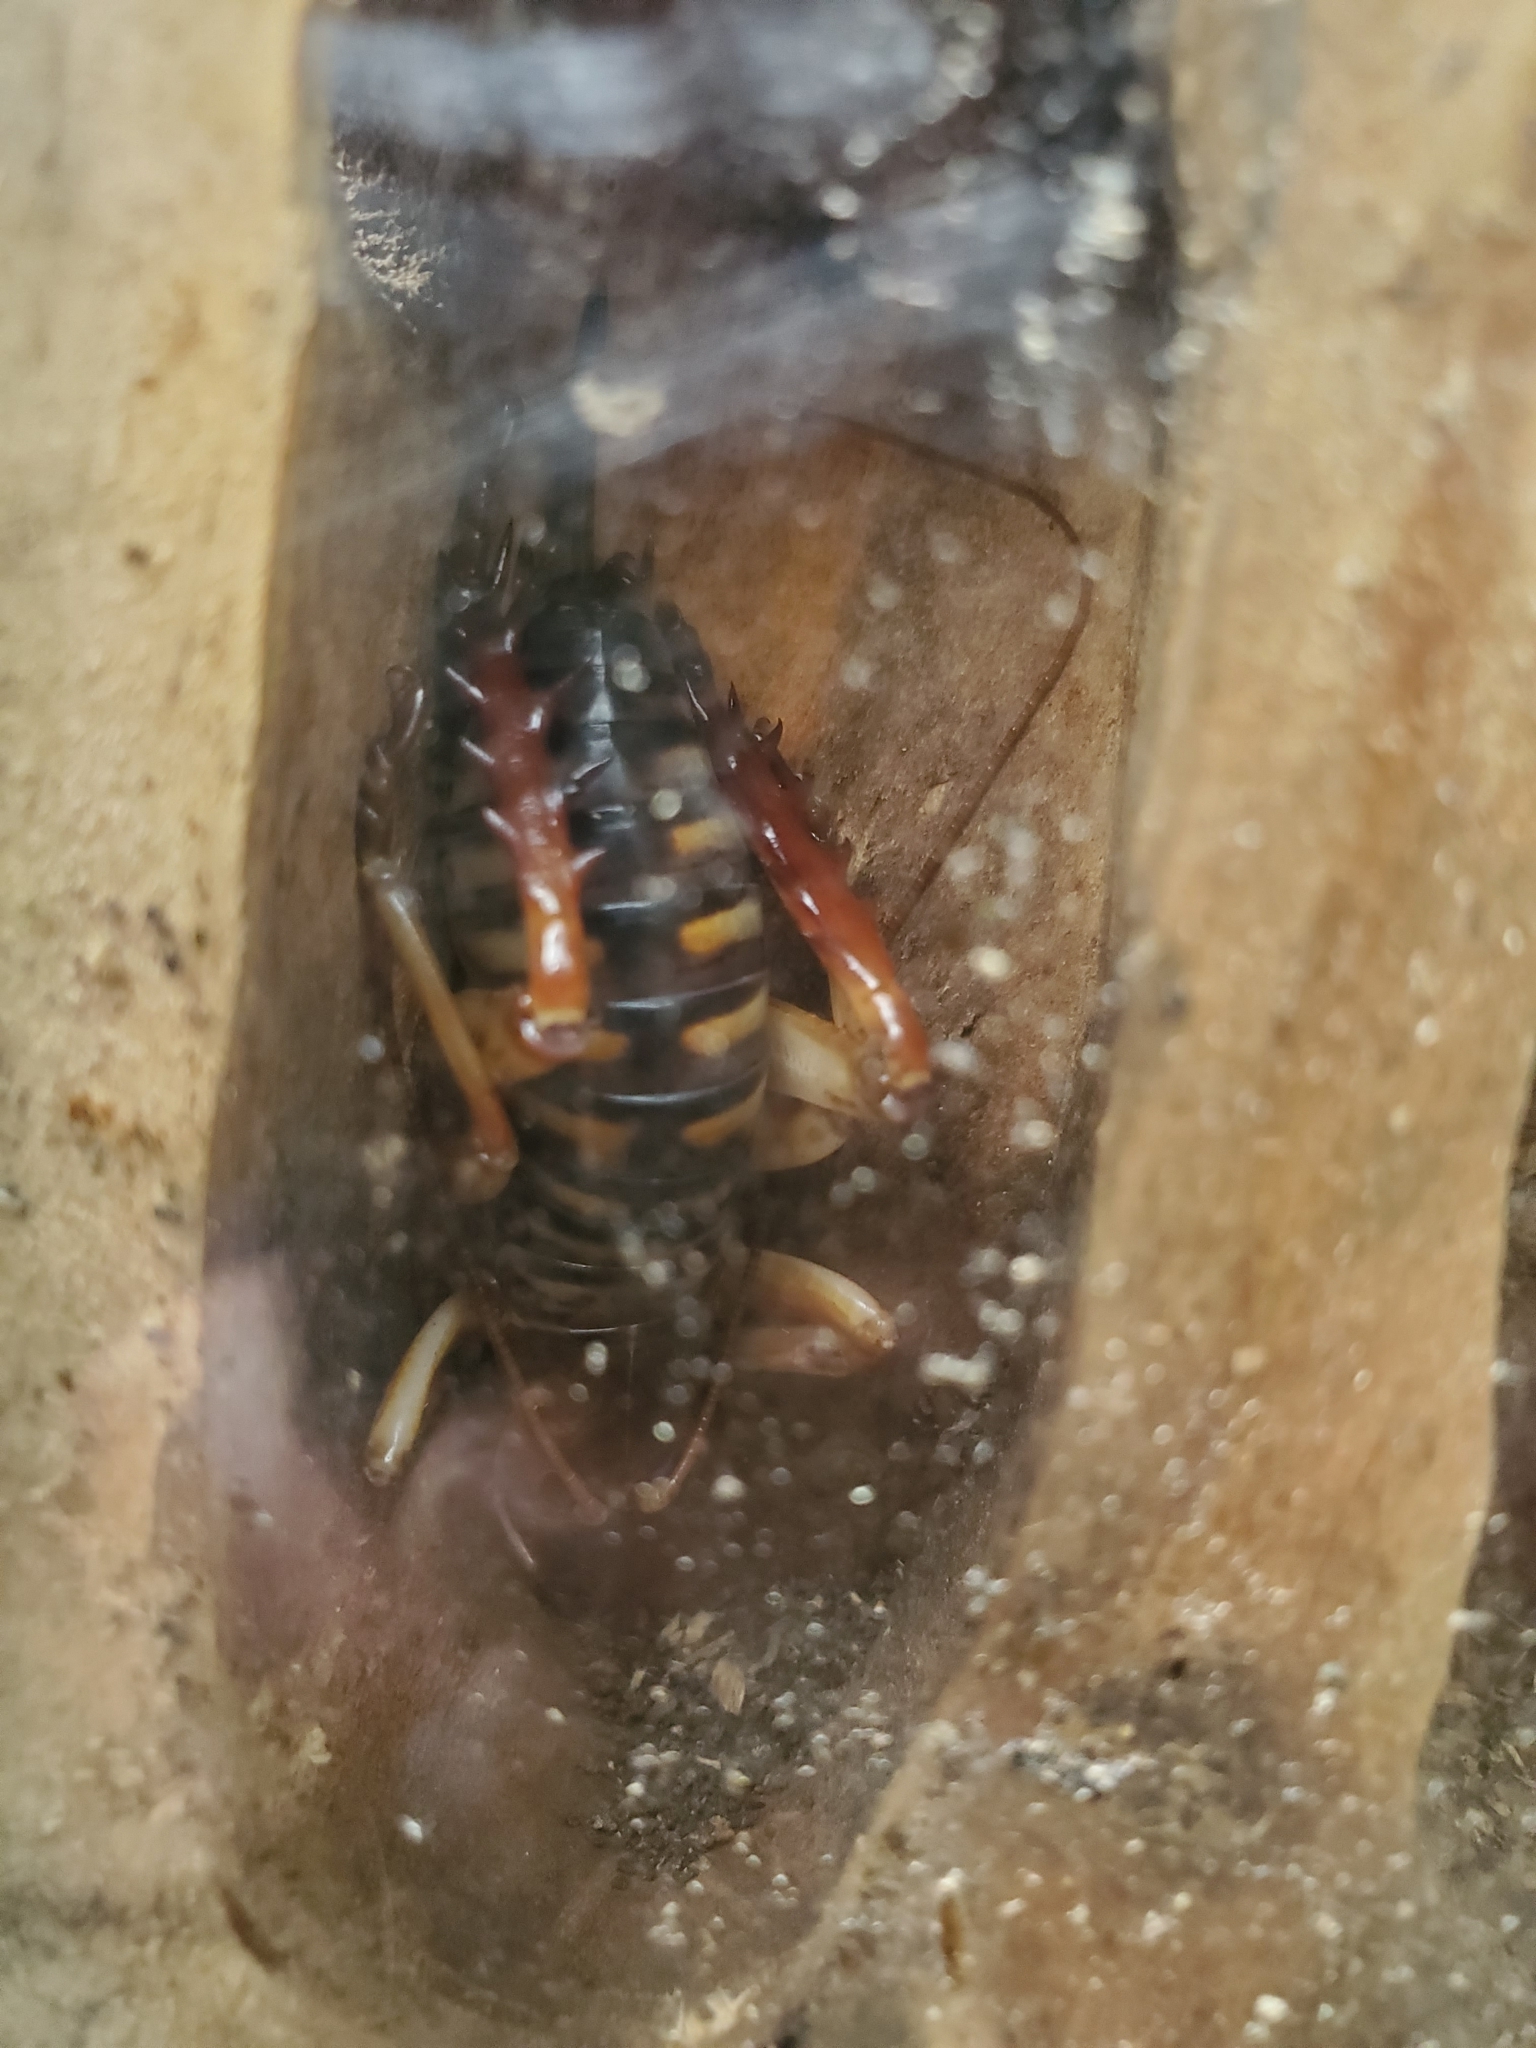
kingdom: Animalia
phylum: Arthropoda
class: Insecta
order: Orthoptera
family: Anostostomatidae
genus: Hemideina
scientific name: Hemideina crassidens
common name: Wellington tree weta
